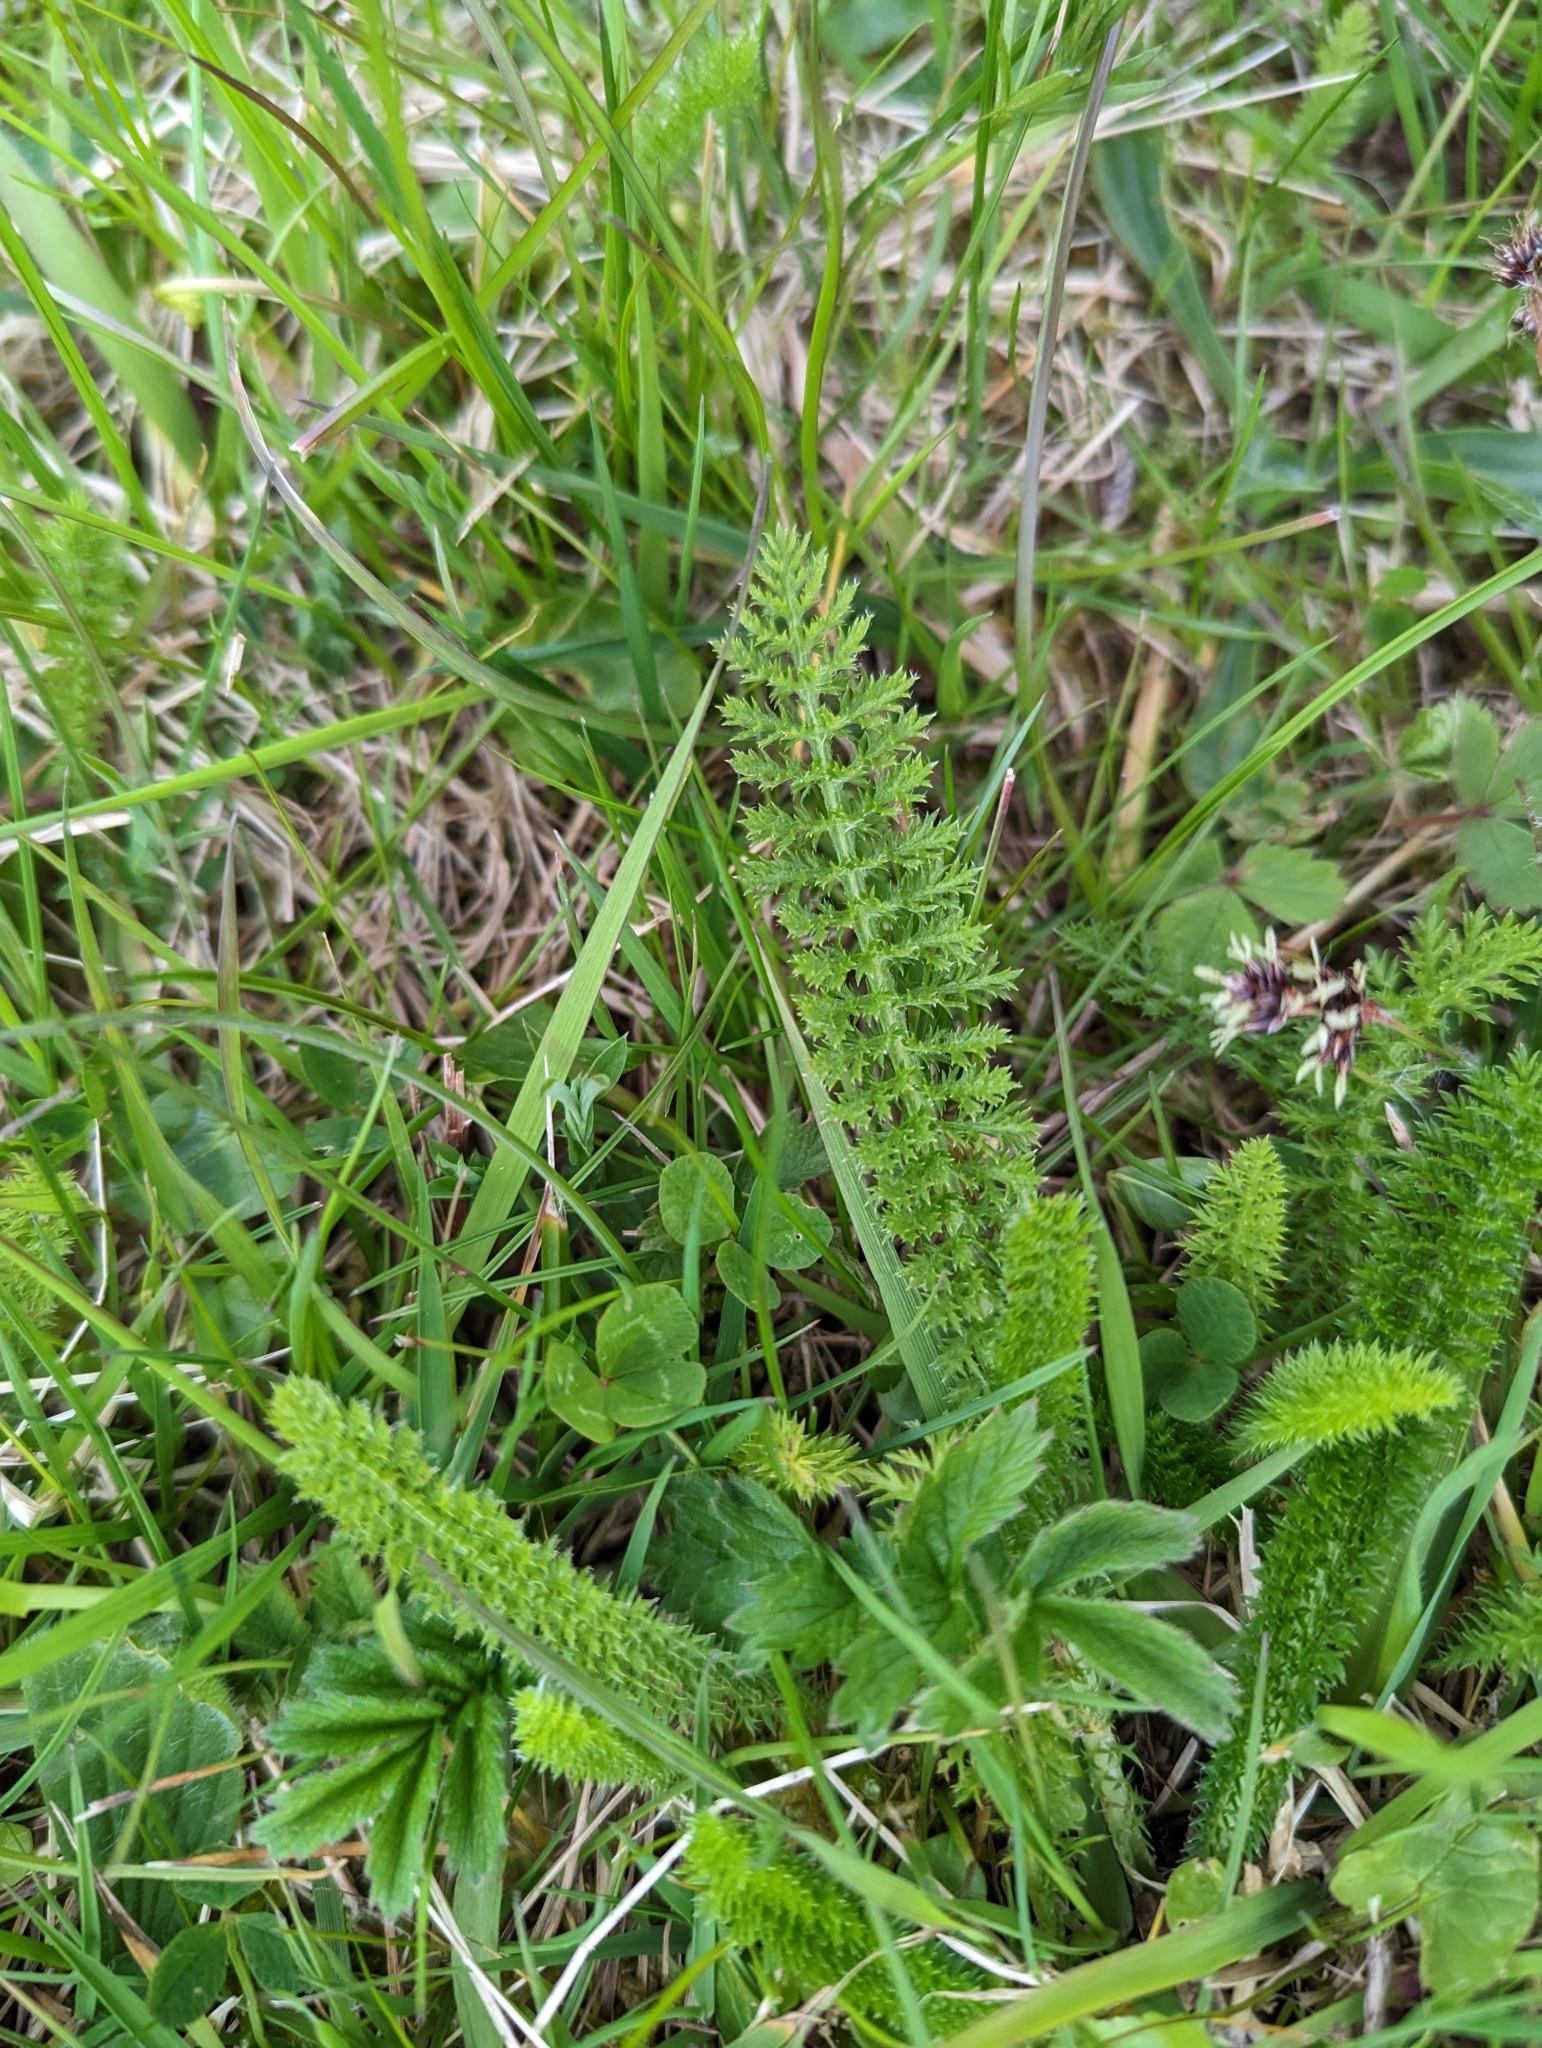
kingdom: Plantae
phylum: Tracheophyta
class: Magnoliopsida
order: Asterales
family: Asteraceae
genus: Achillea
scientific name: Achillea millefolium
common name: Yarrow
